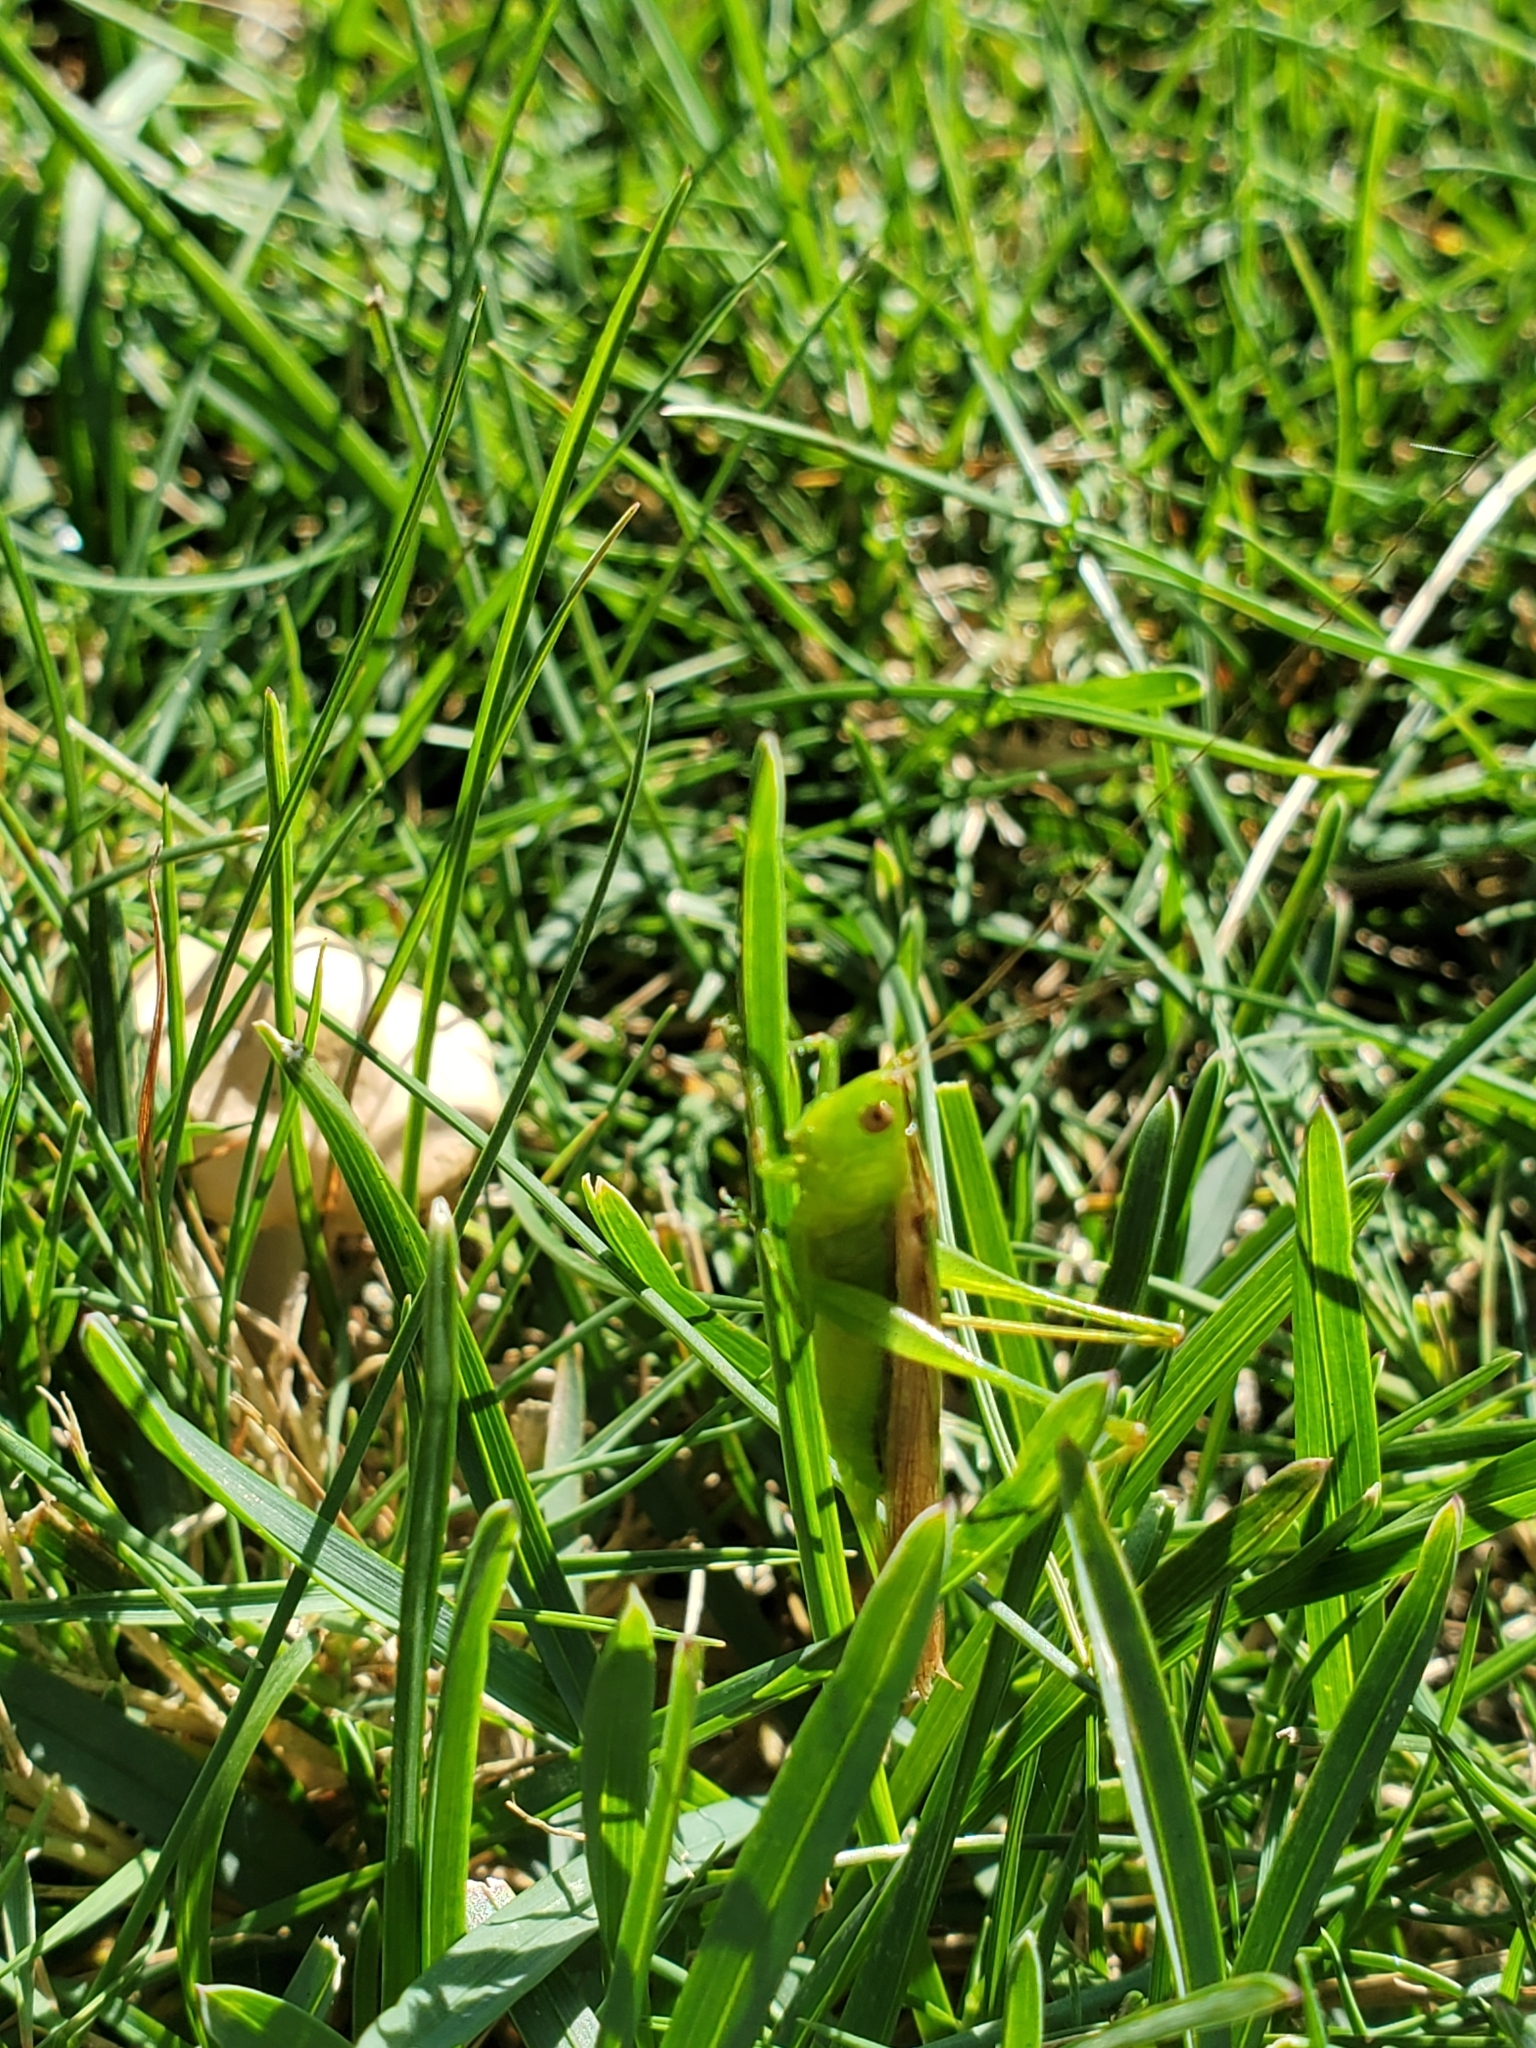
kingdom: Animalia
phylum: Arthropoda
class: Insecta
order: Orthoptera
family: Tettigoniidae
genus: Conocephalus
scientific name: Conocephalus fasciatus
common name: Slender meadow katydid
